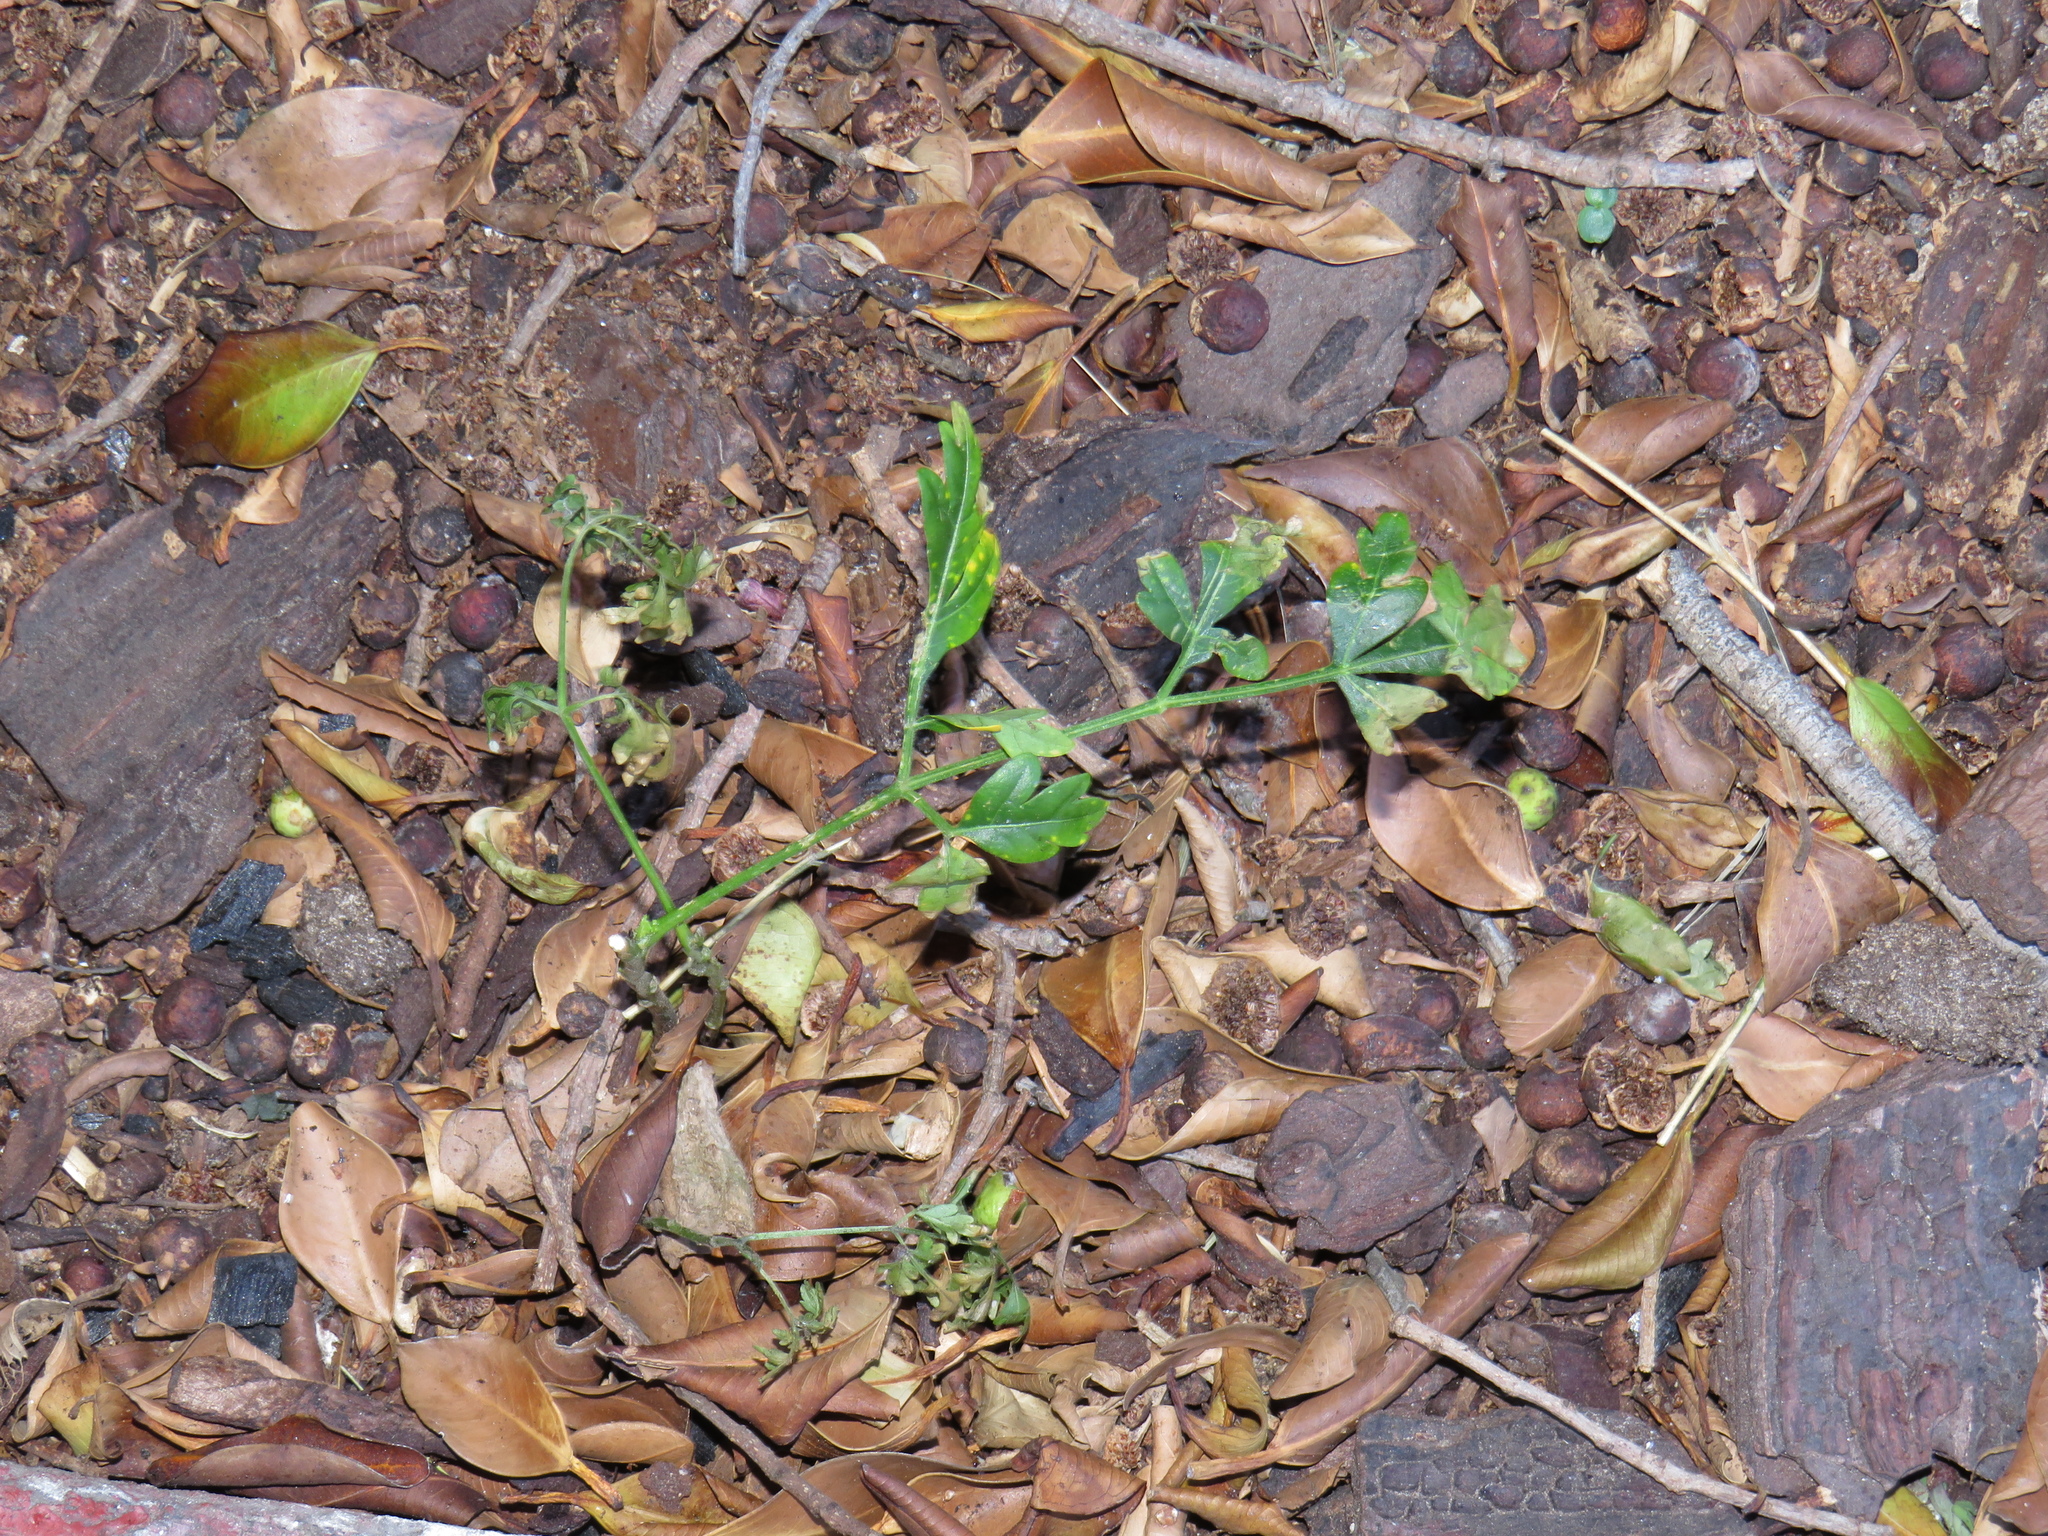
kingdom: Plantae
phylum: Tracheophyta
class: Magnoliopsida
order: Sapindales
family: Meliaceae
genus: Melia
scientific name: Melia azedarach
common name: Chinaberrytree
